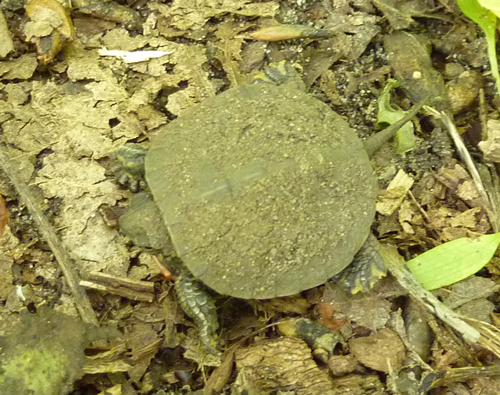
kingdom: Animalia
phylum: Chordata
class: Testudines
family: Emydidae
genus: Chrysemys
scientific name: Chrysemys picta
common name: Painted turtle
